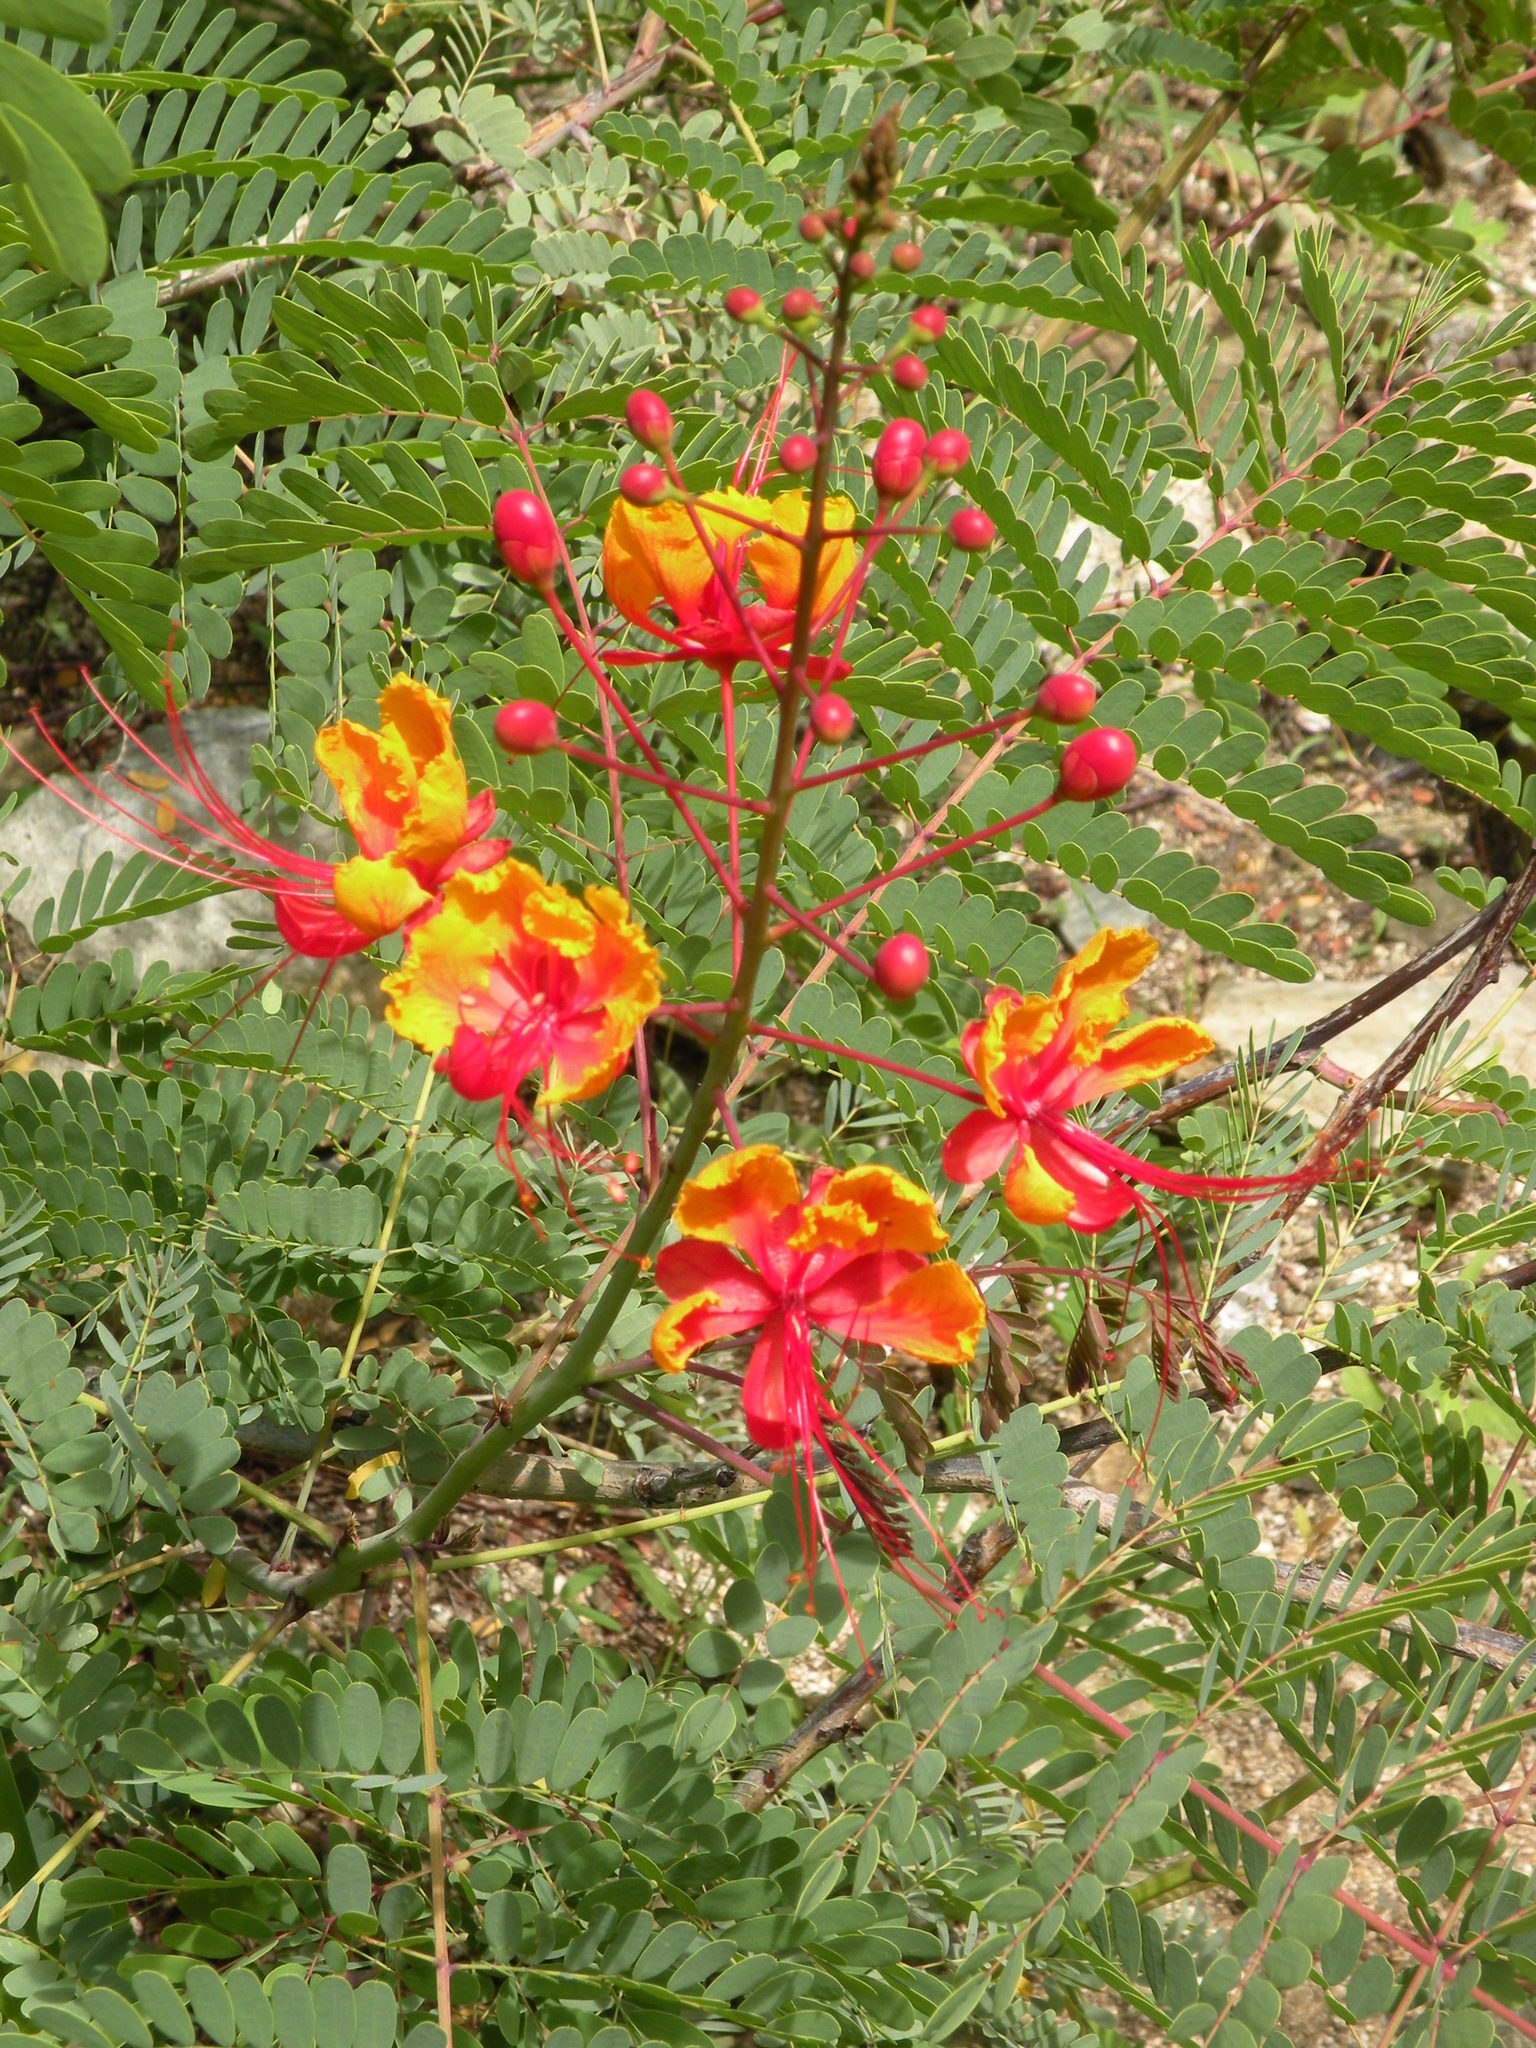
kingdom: Plantae
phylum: Tracheophyta
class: Magnoliopsida
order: Fabales
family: Fabaceae
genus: Caesalpinia
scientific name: Caesalpinia pulcherrima
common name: Pride-of-barbados
